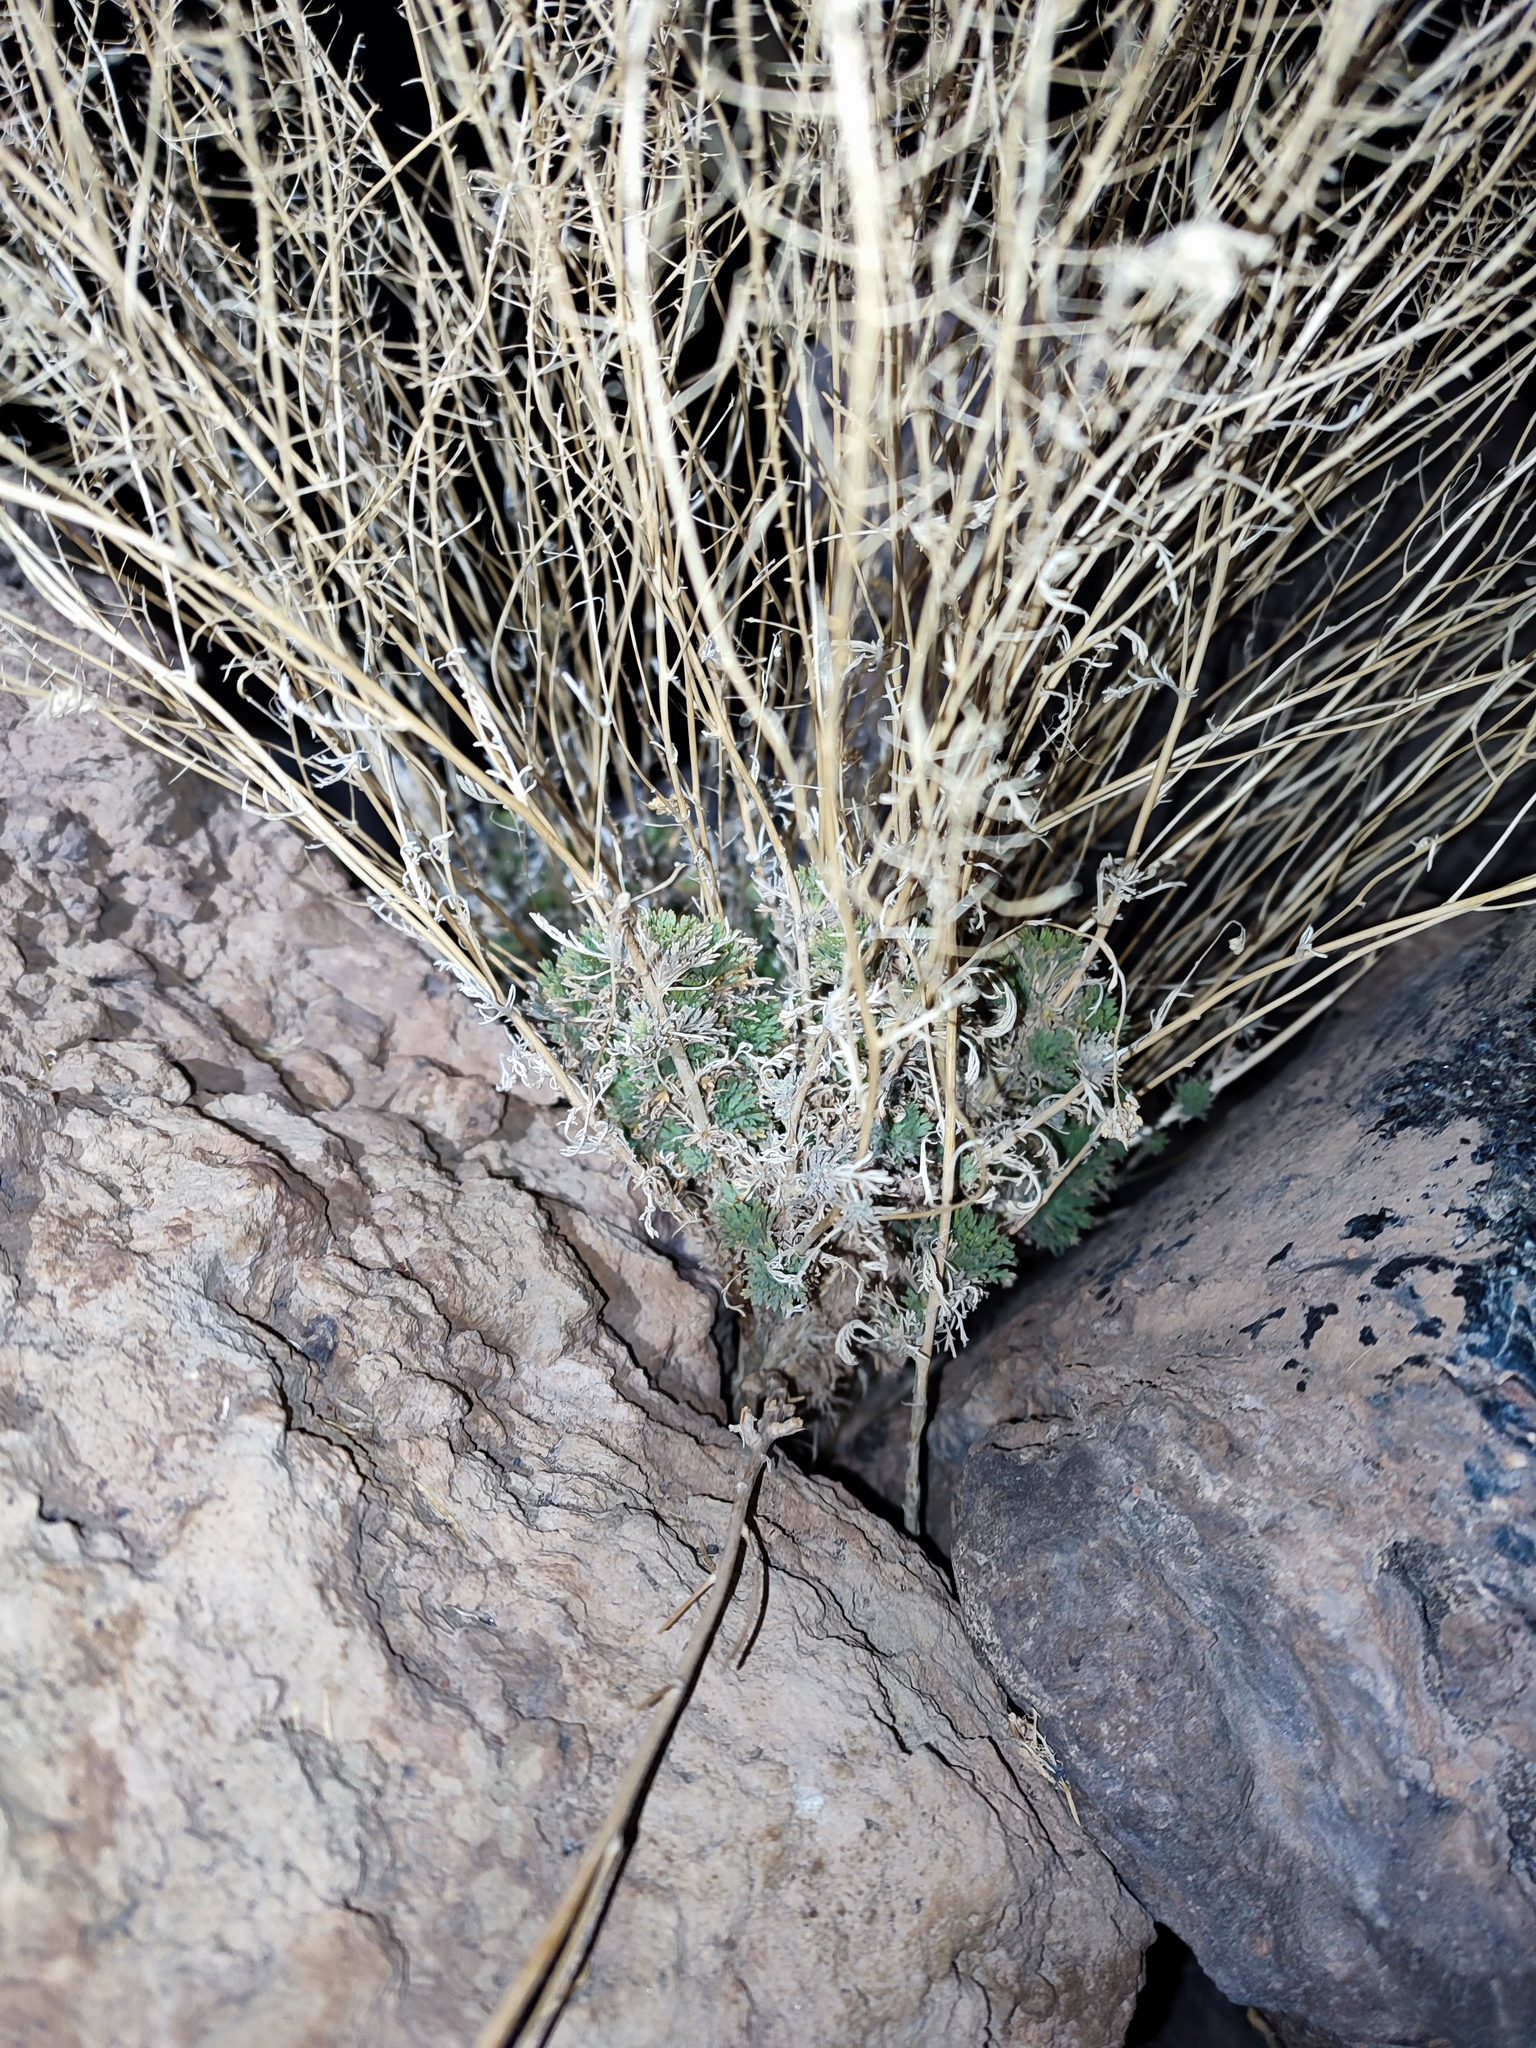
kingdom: Plantae
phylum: Tracheophyta
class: Magnoliopsida
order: Brassicales
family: Brassicaceae
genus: Descurainia
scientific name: Descurainia bourgaeana
